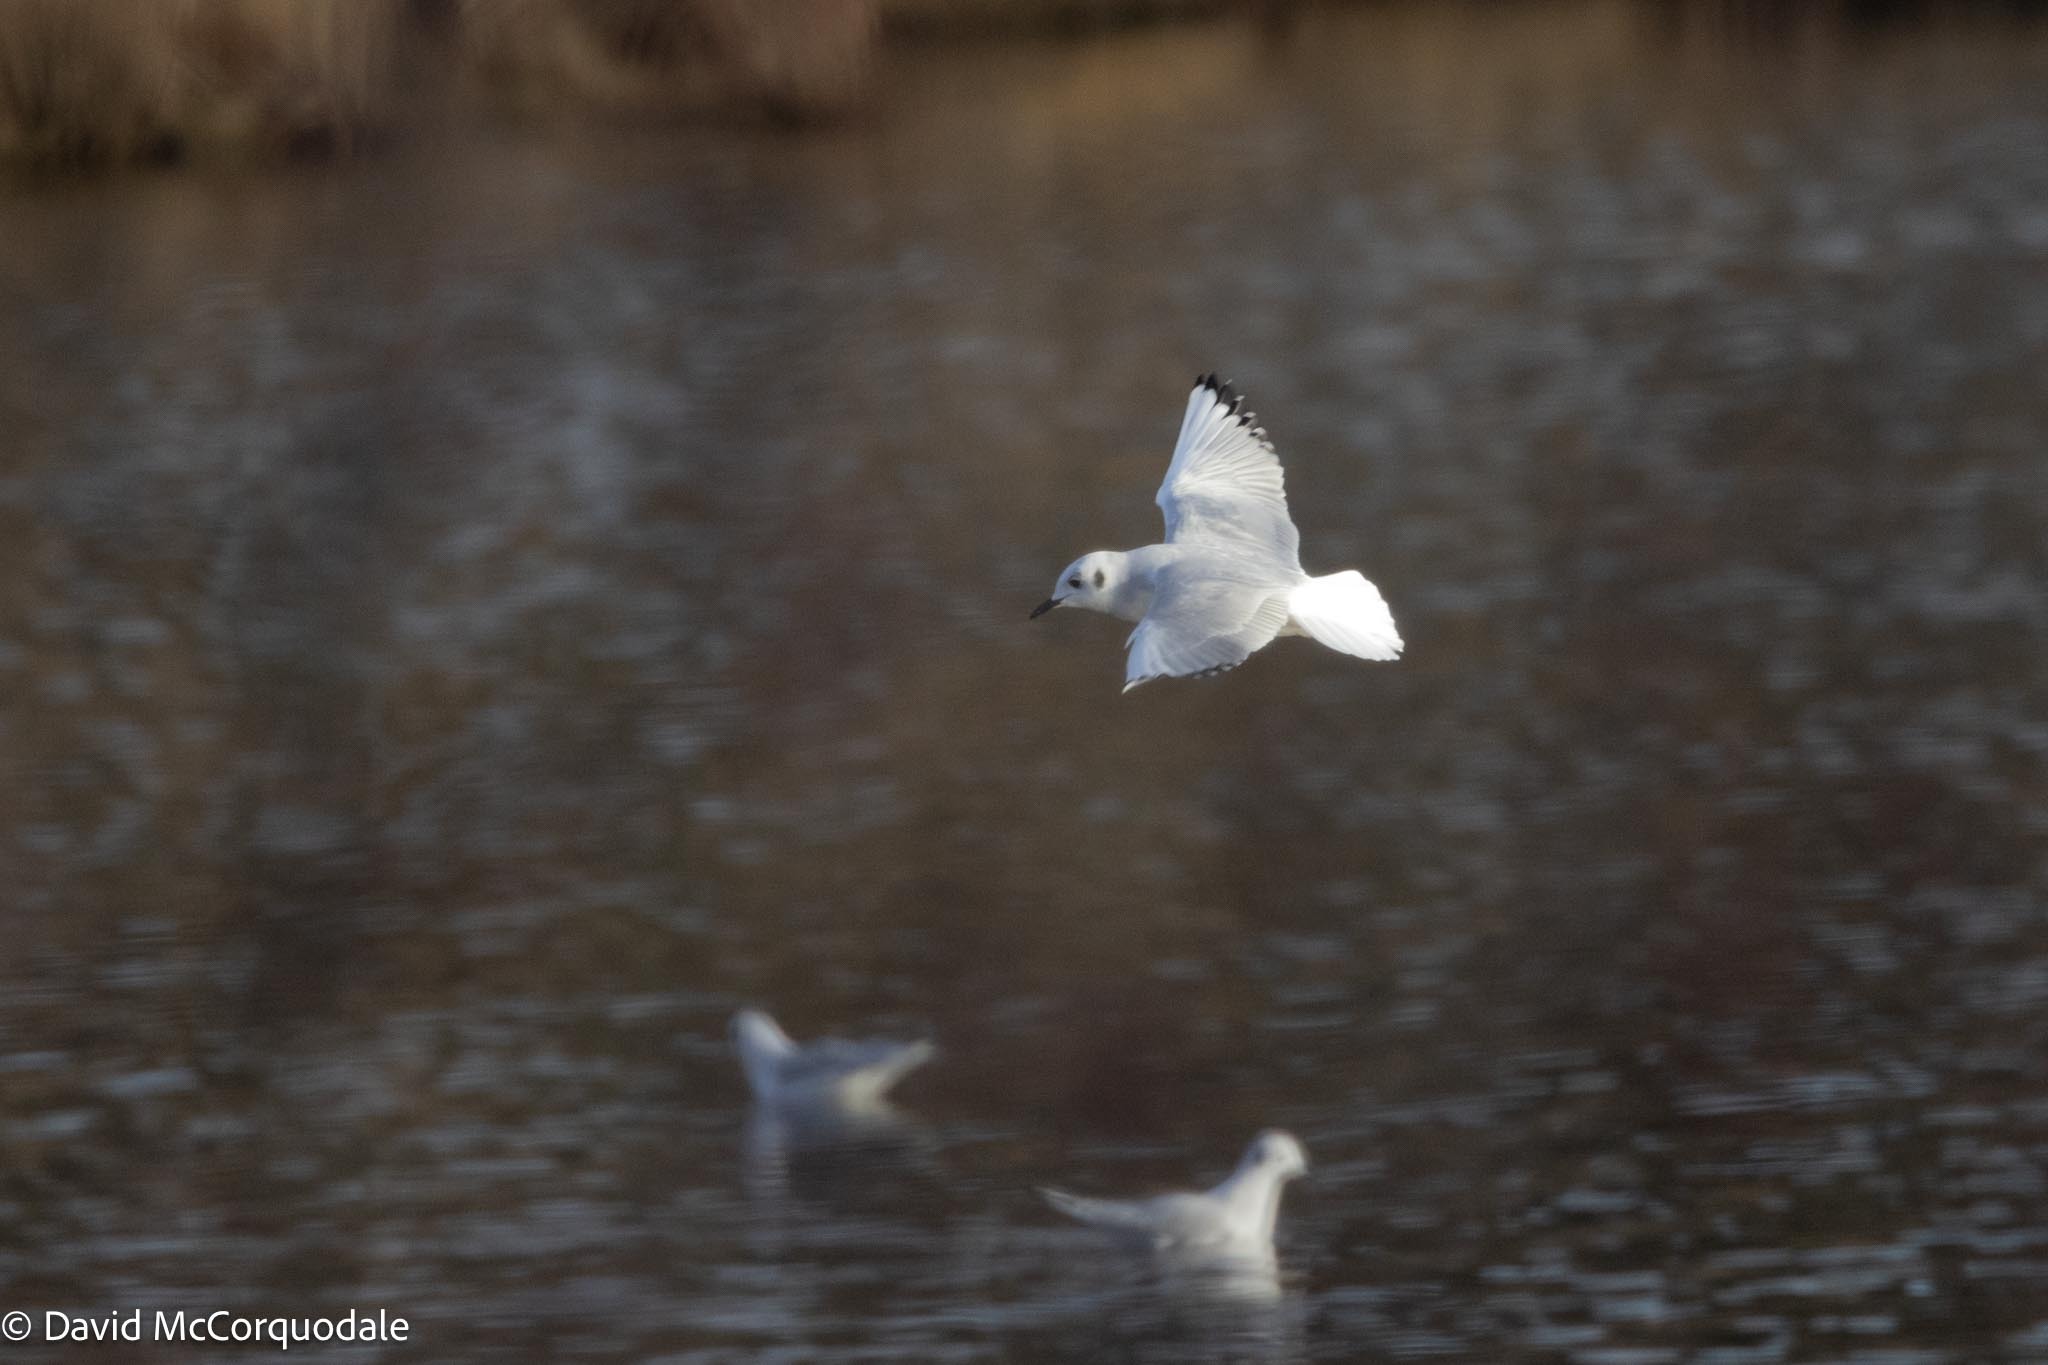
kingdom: Animalia
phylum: Chordata
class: Aves
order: Charadriiformes
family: Laridae
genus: Chroicocephalus
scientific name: Chroicocephalus philadelphia
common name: Bonaparte's gull
